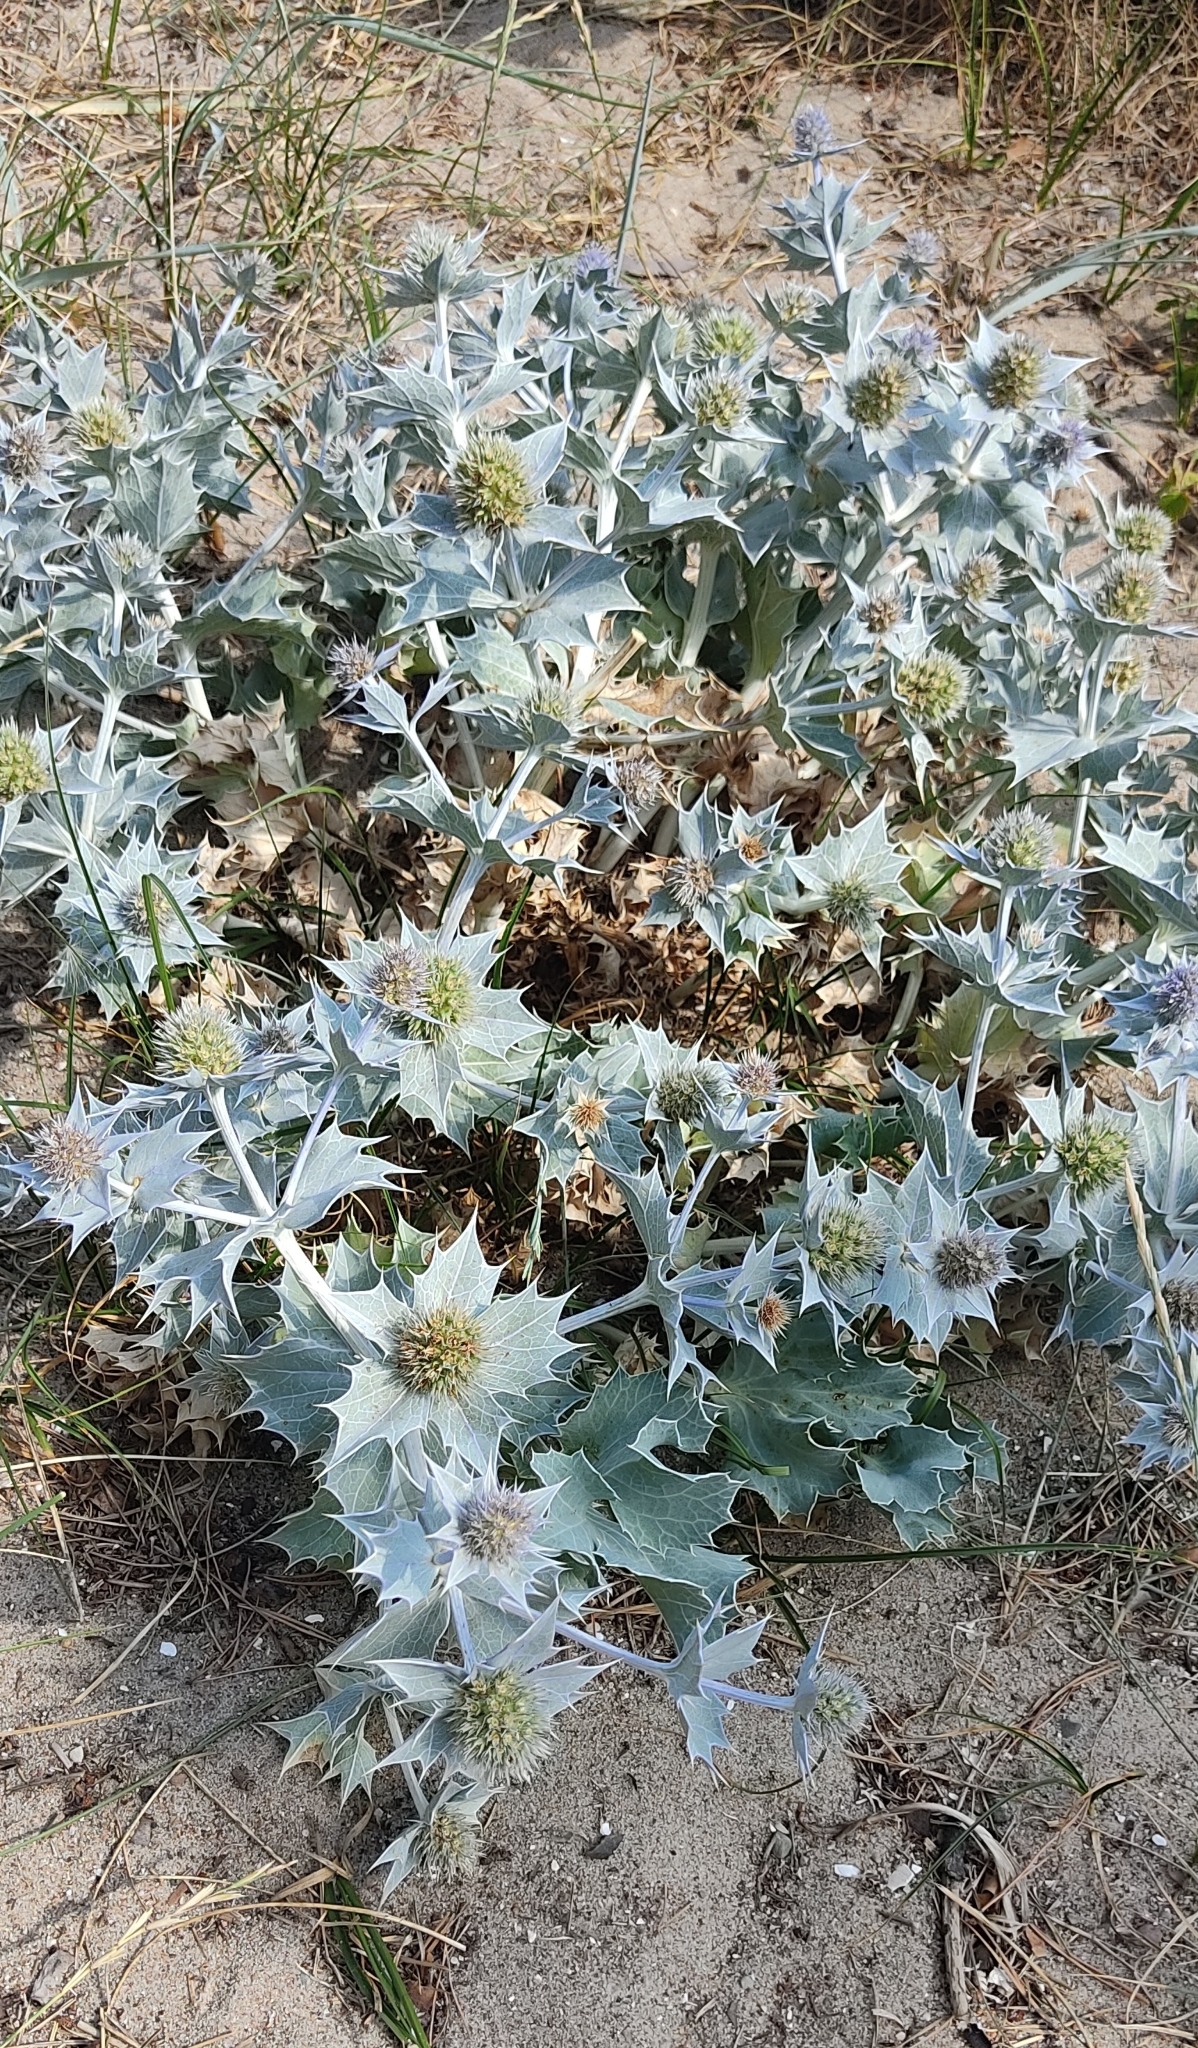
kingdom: Plantae
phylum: Tracheophyta
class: Magnoliopsida
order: Apiales
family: Apiaceae
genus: Eryngium
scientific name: Eryngium maritimum
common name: Sea-holly
